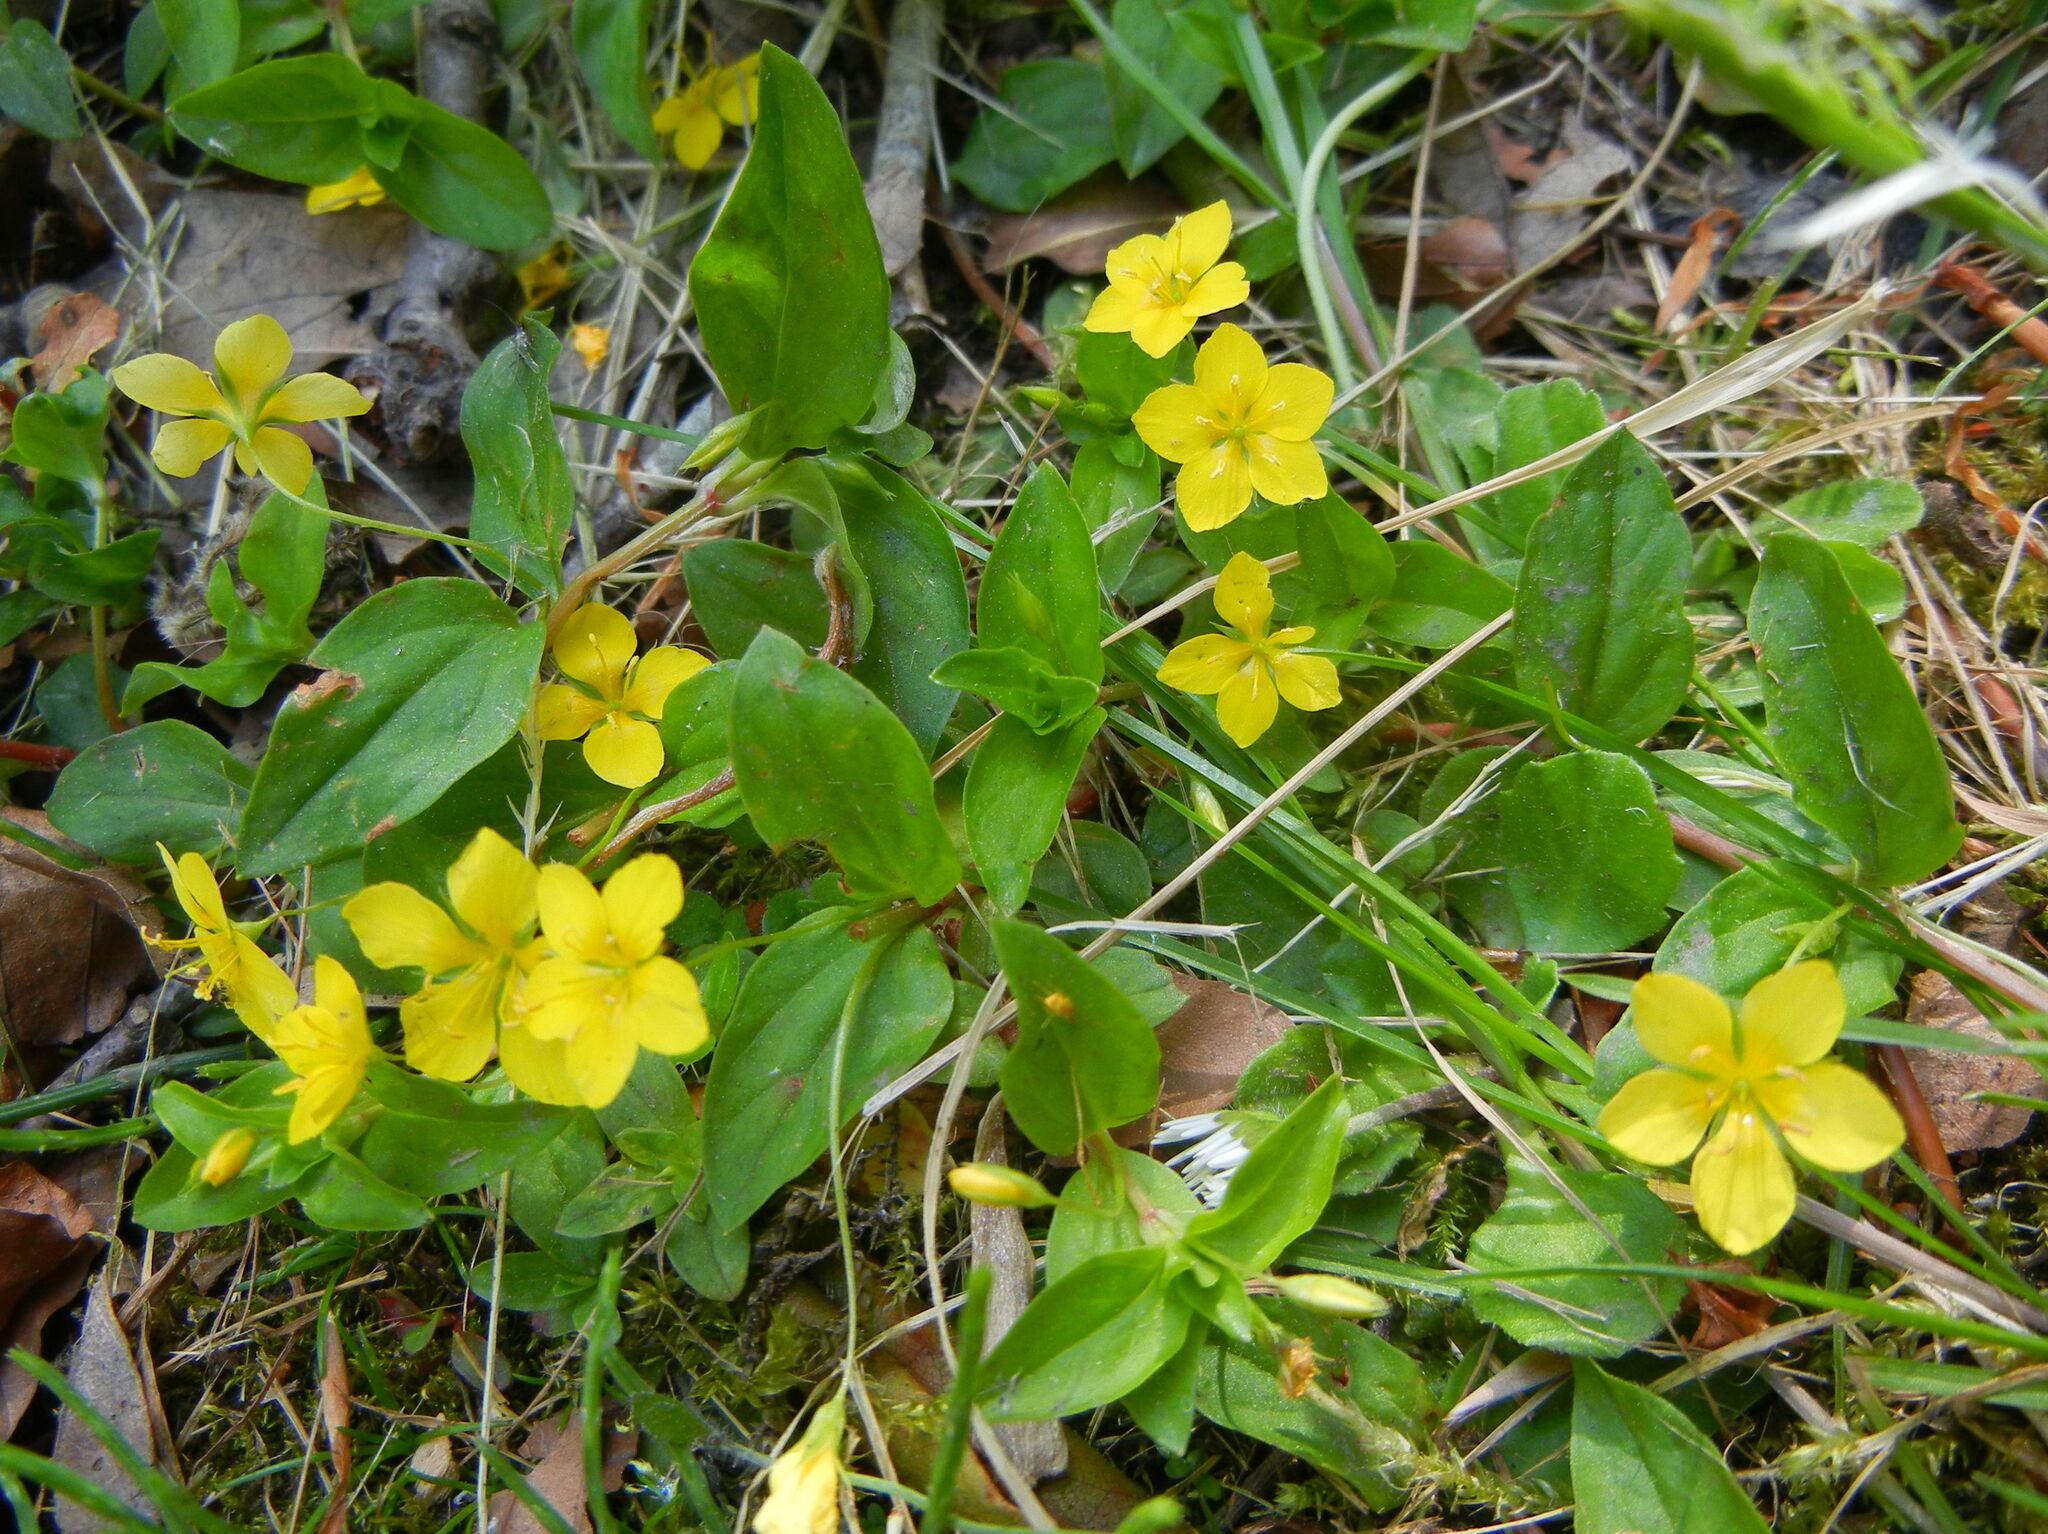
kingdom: Plantae
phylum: Tracheophyta
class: Magnoliopsida
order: Ericales
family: Primulaceae
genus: Lysimachia
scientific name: Lysimachia nemorum
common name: Yellow pimpernel
